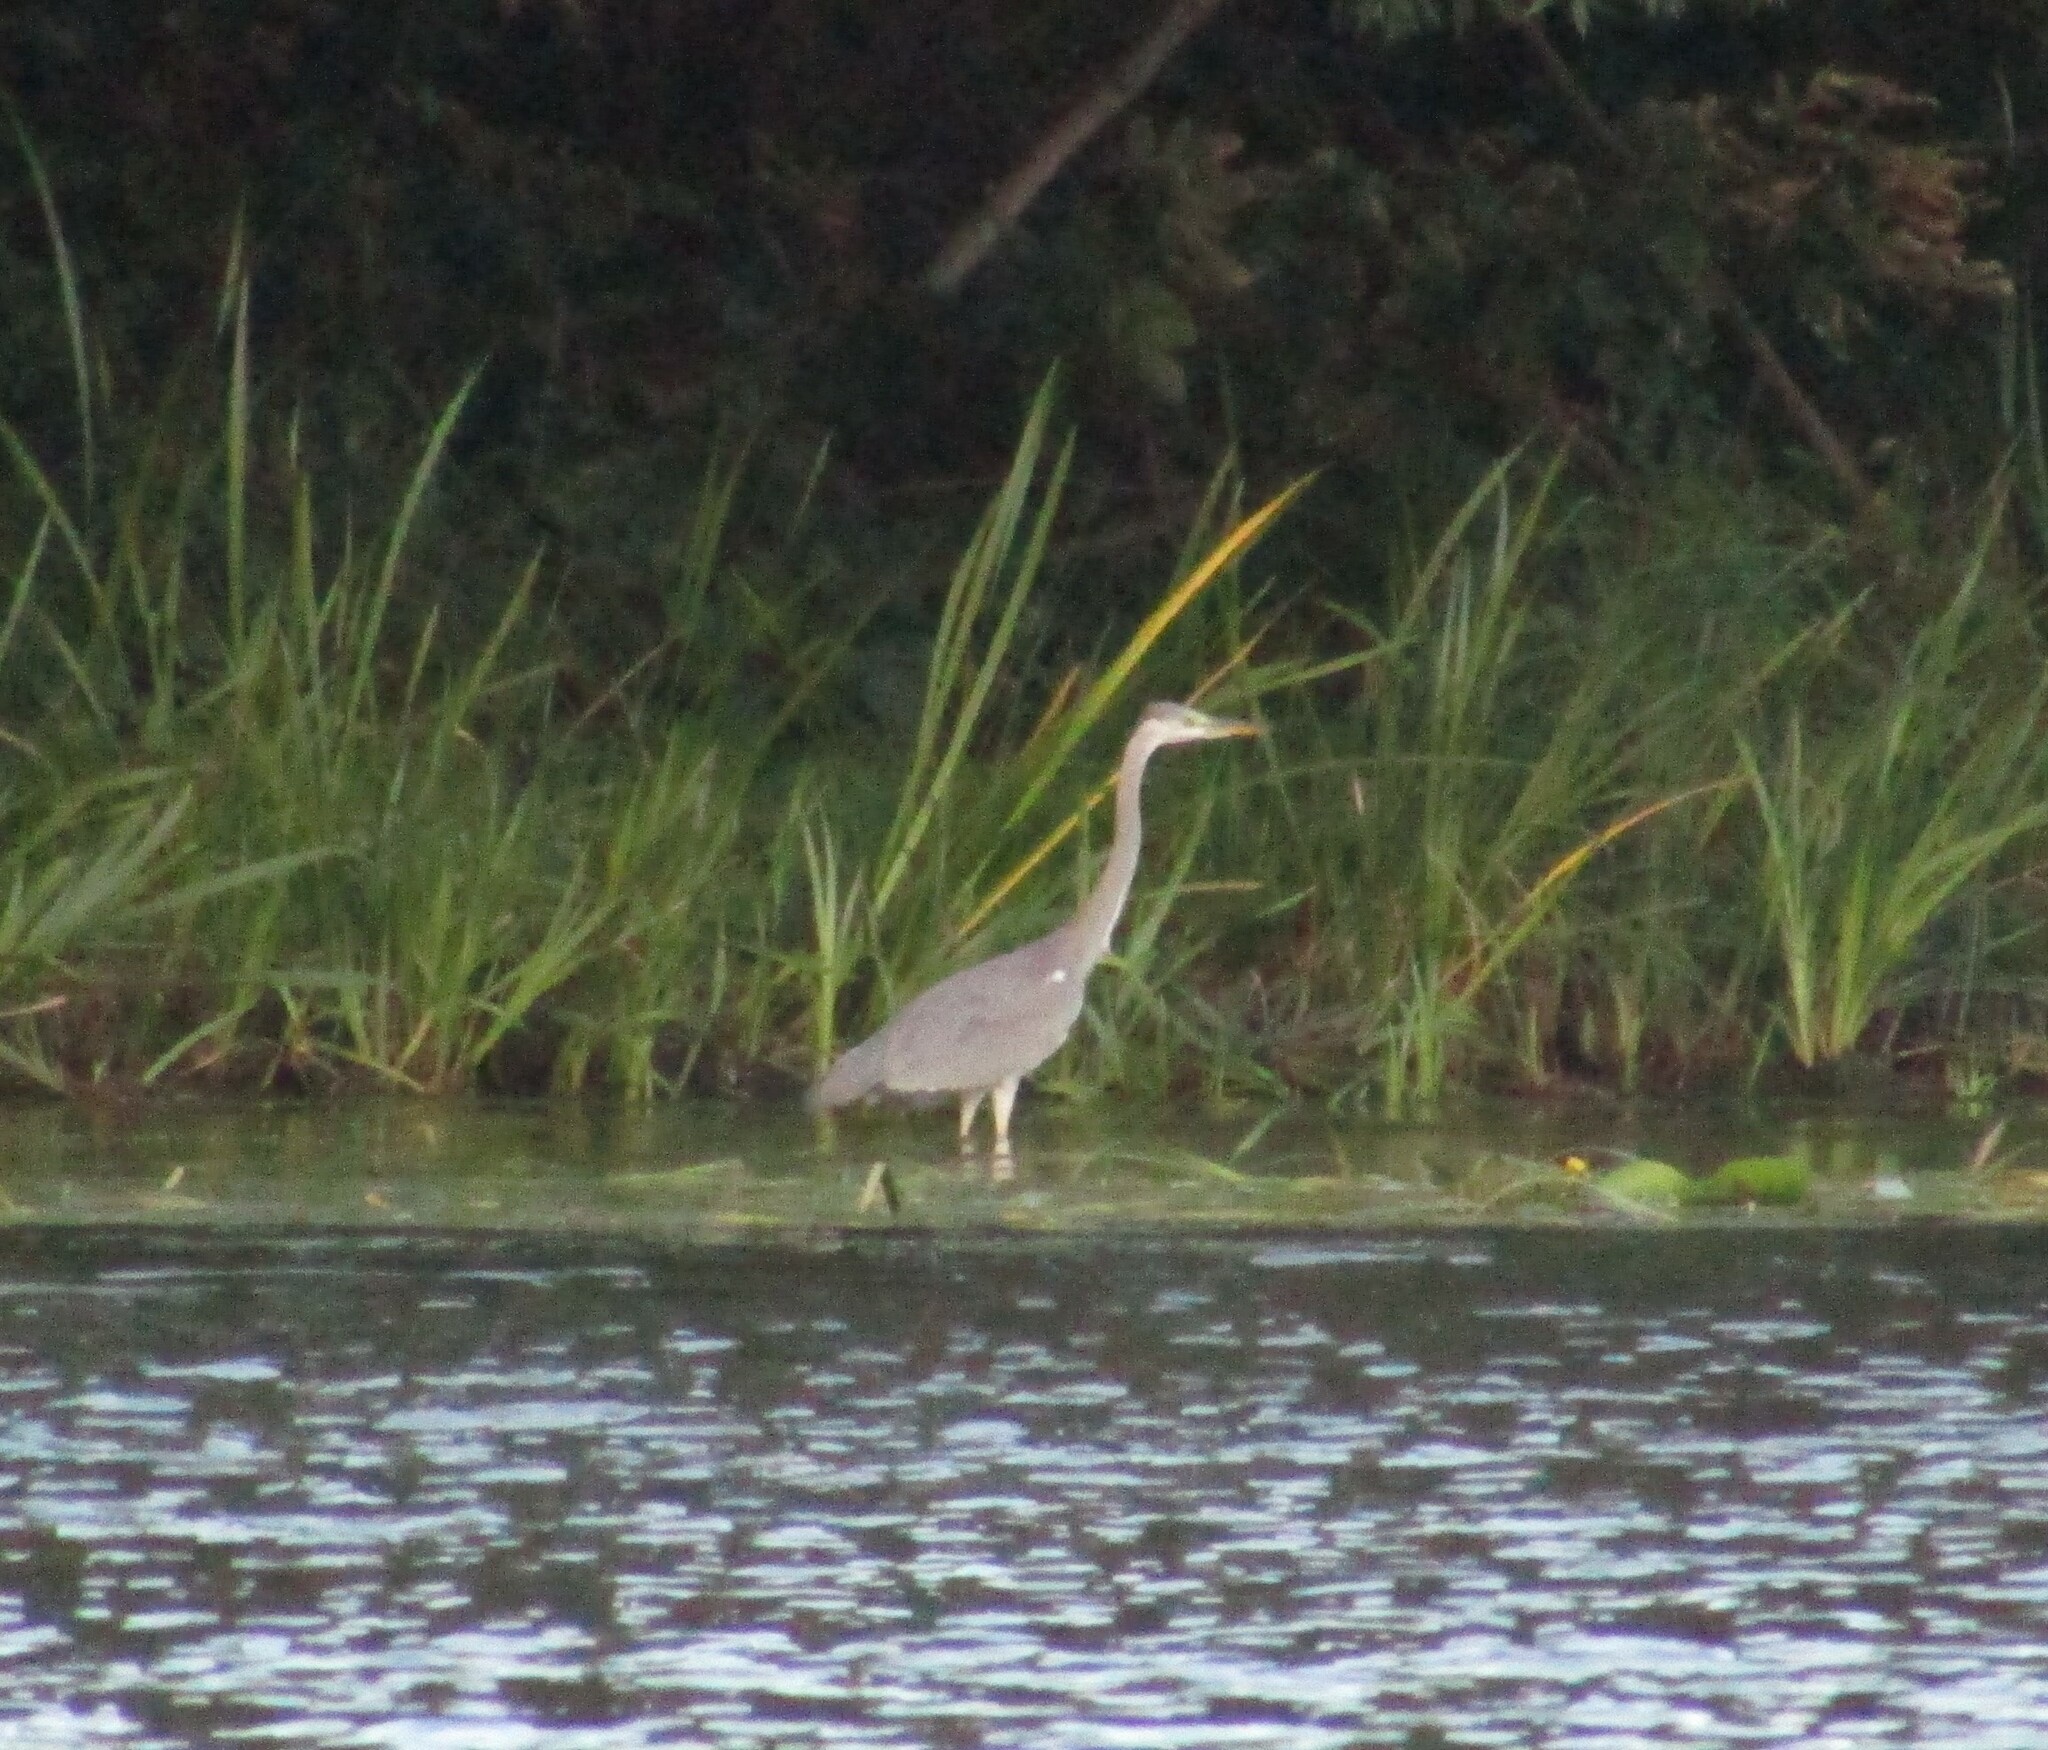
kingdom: Animalia
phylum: Chordata
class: Aves
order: Pelecaniformes
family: Ardeidae
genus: Ardea
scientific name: Ardea cinerea
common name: Grey heron
